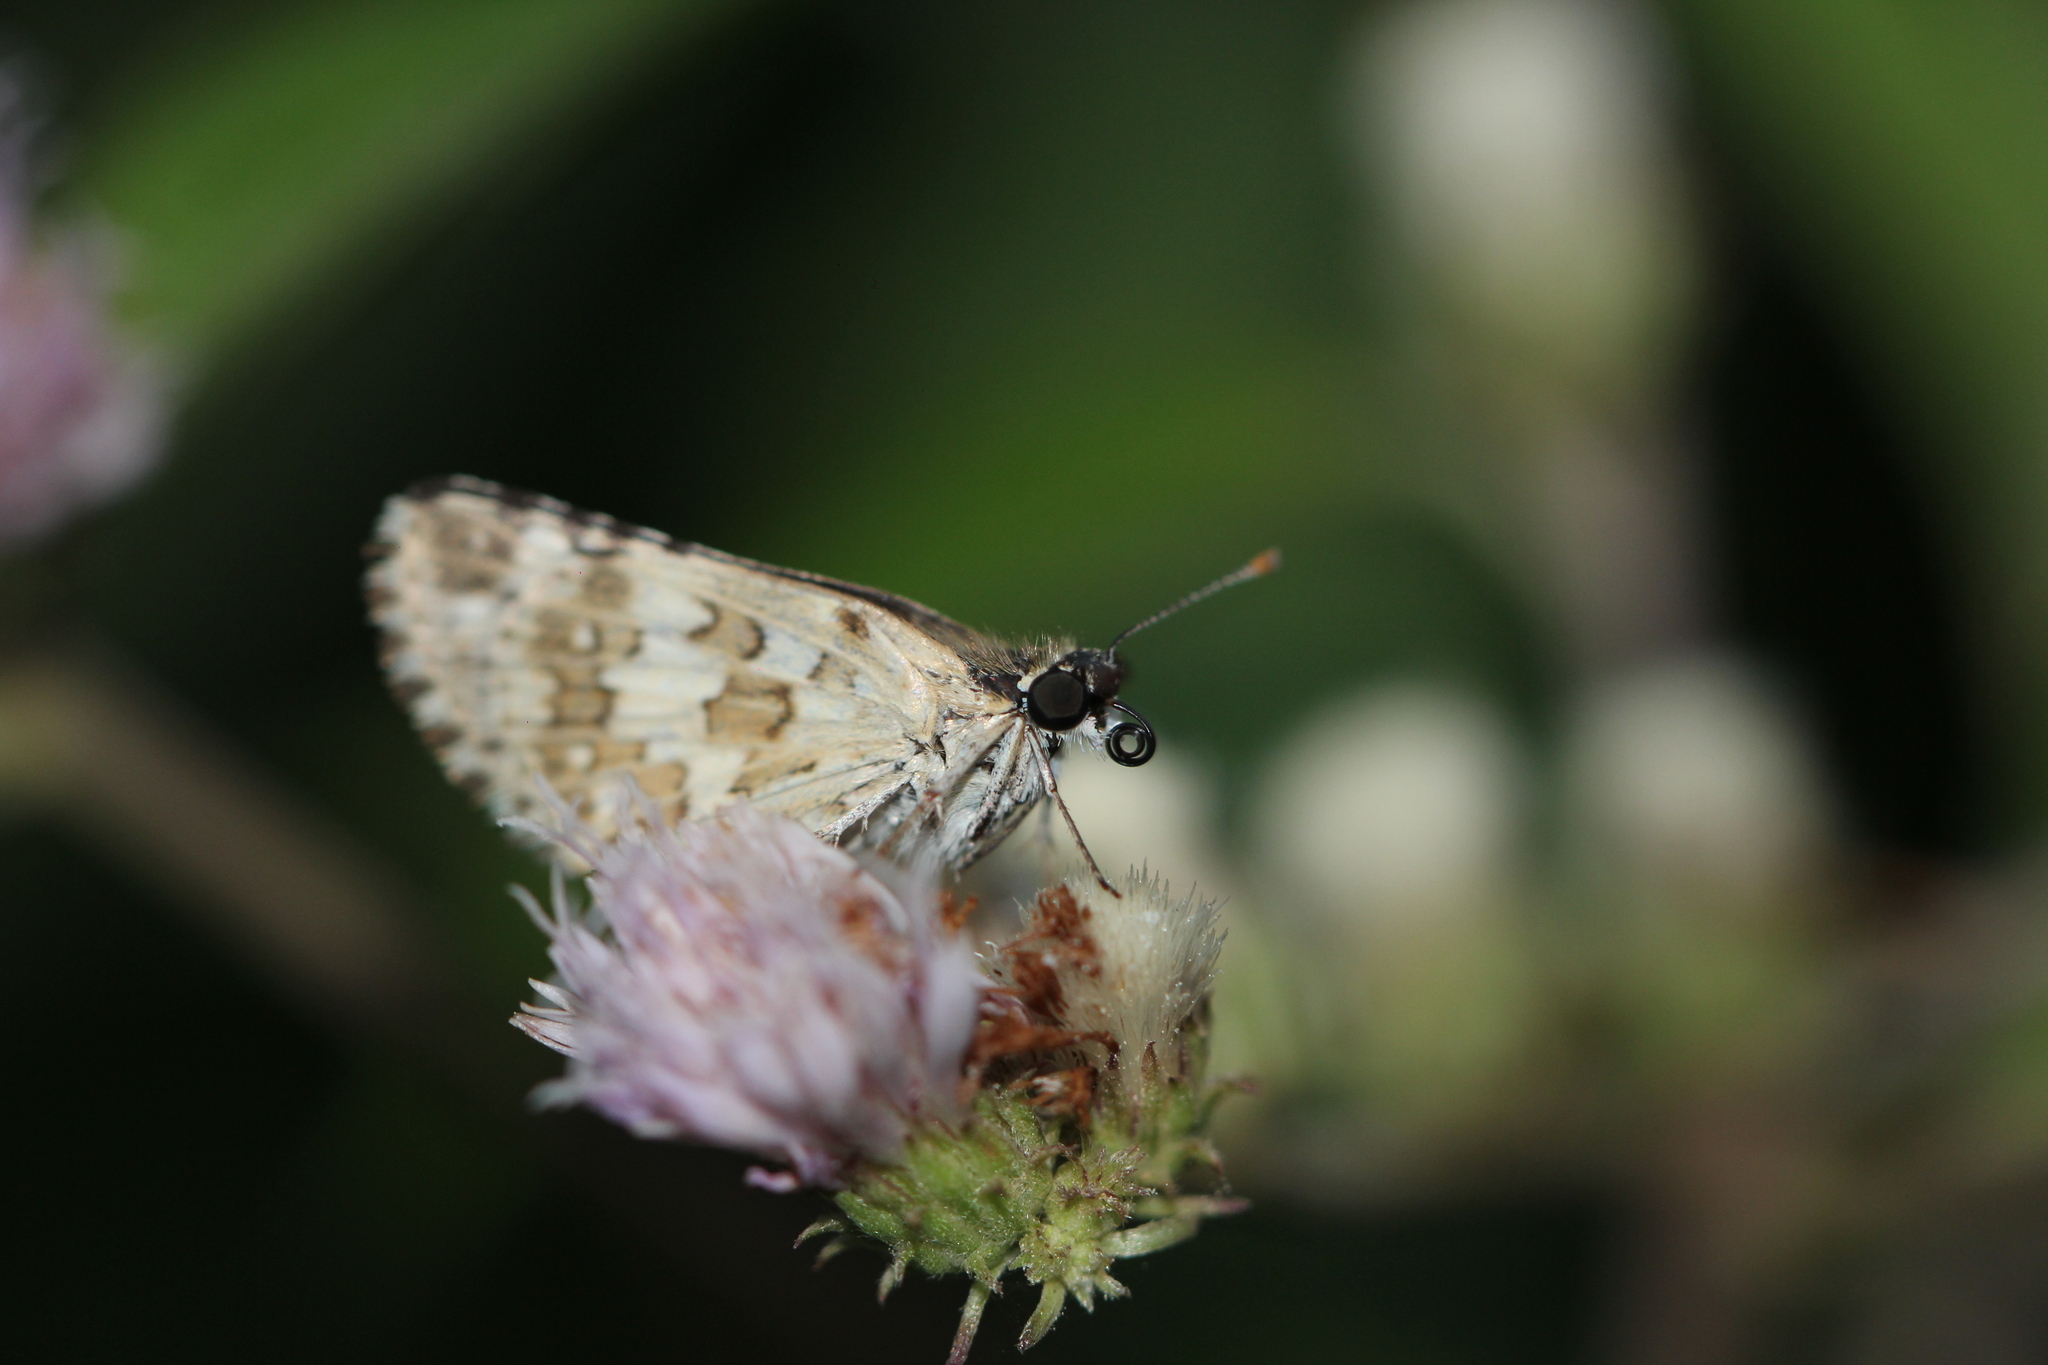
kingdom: Animalia
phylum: Arthropoda
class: Insecta
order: Lepidoptera
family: Hesperiidae
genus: Burnsius
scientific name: Burnsius orcynoides
